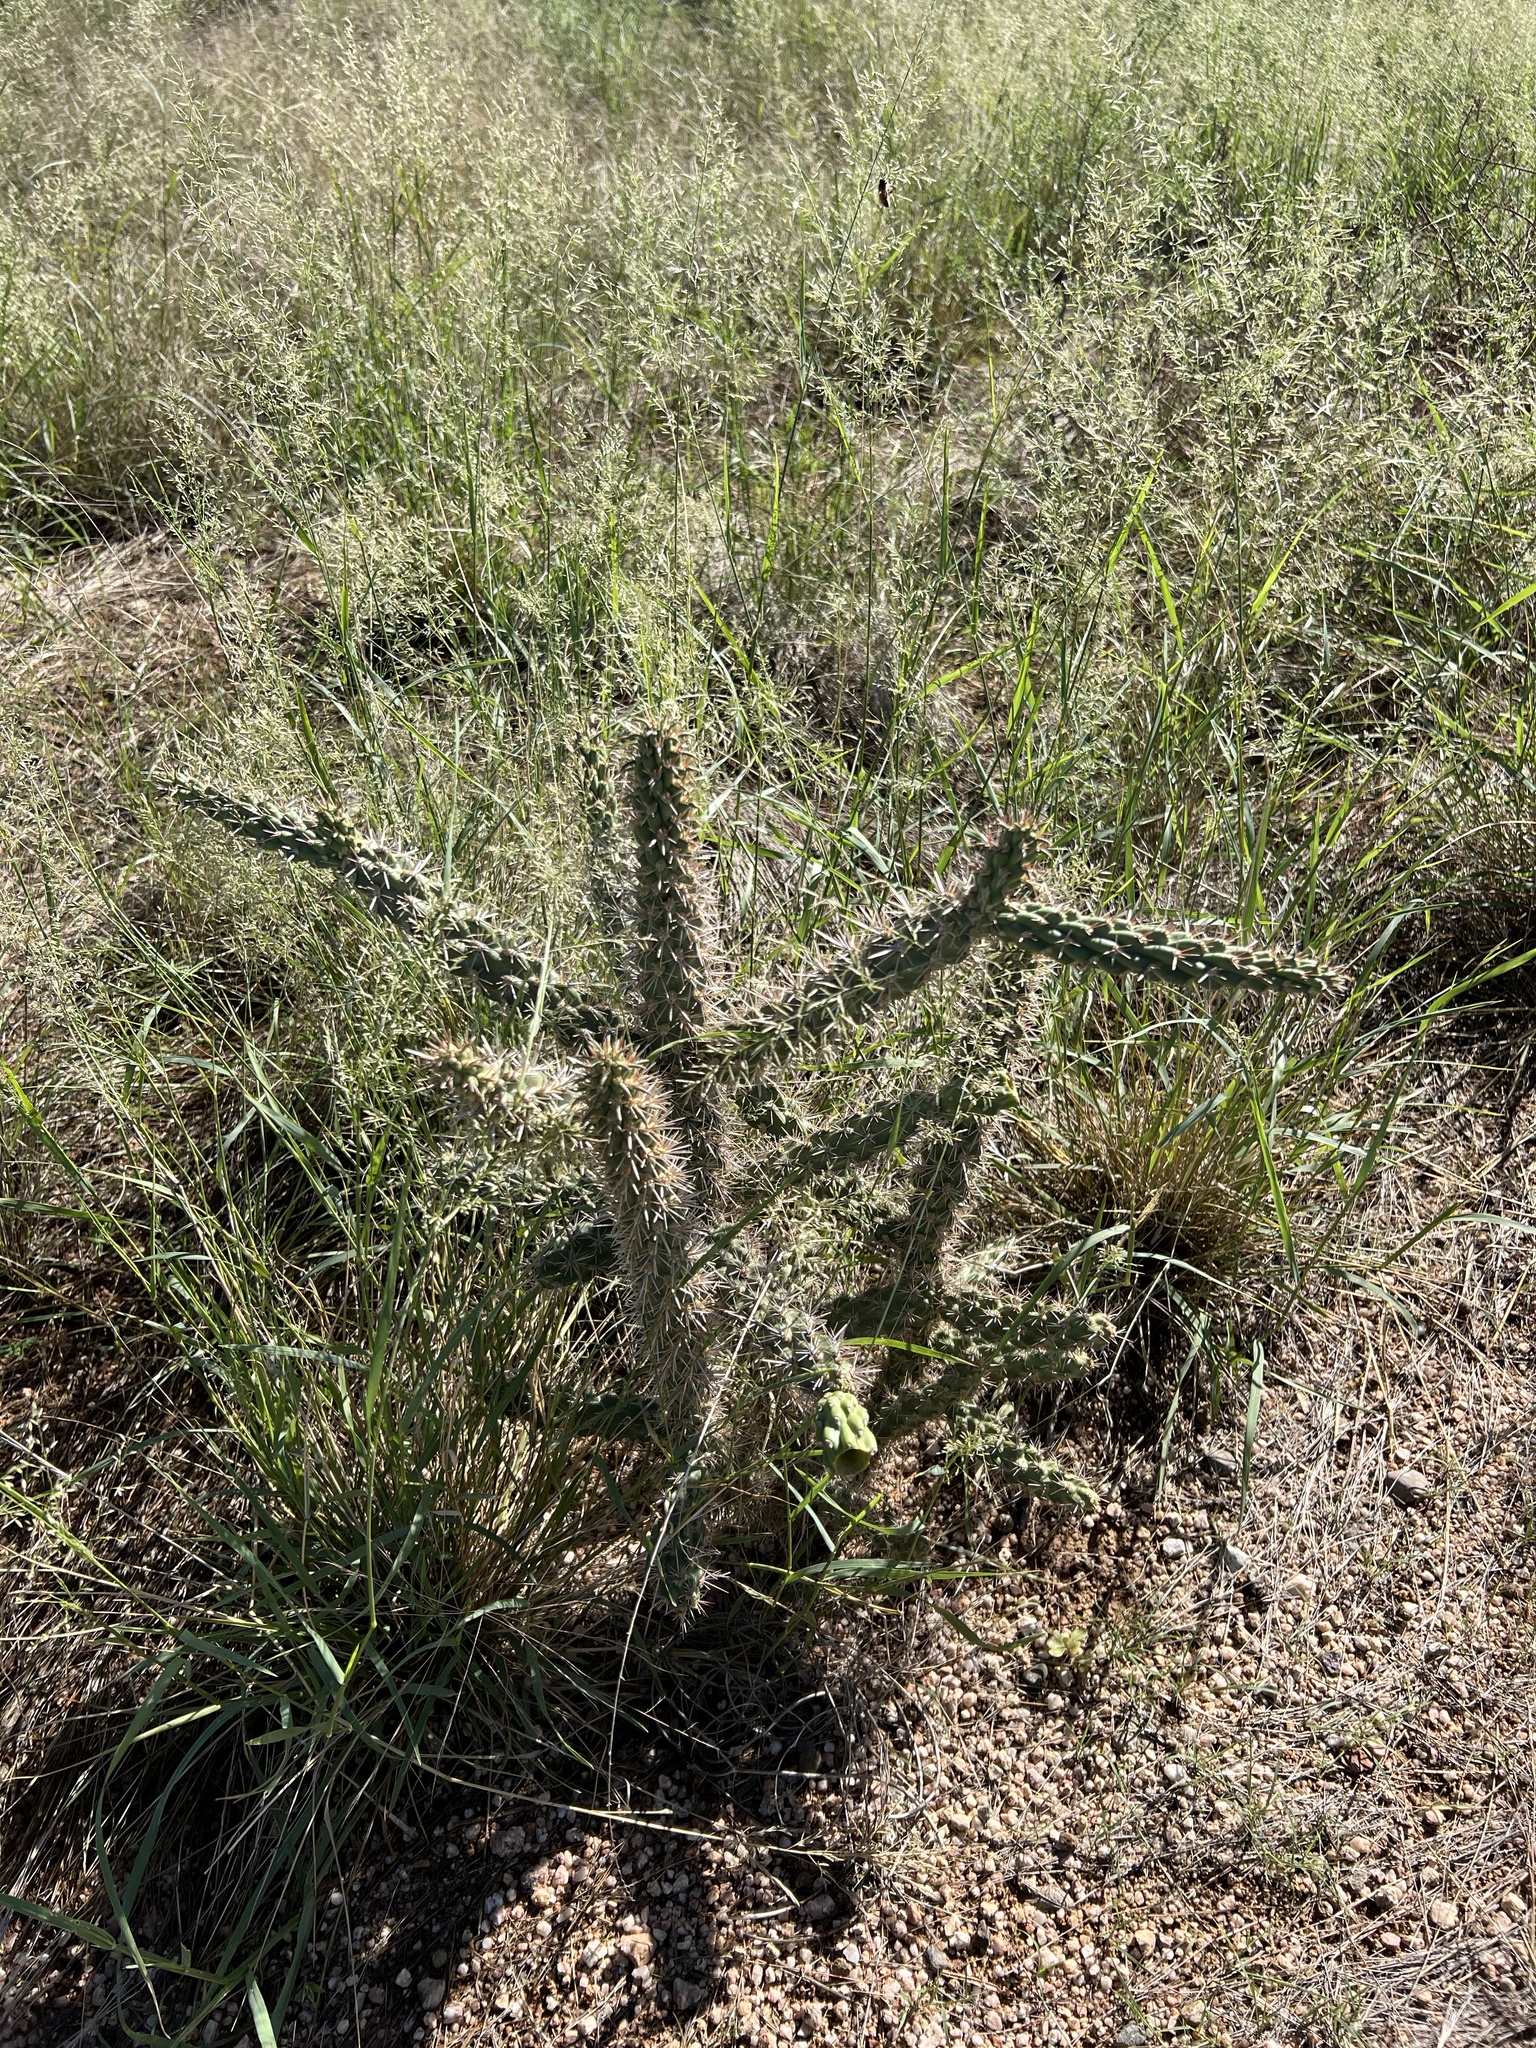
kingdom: Plantae
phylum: Tracheophyta
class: Magnoliopsida
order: Caryophyllales
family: Cactaceae
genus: Cylindropuntia
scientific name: Cylindropuntia imbricata
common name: Candelabrum cactus
